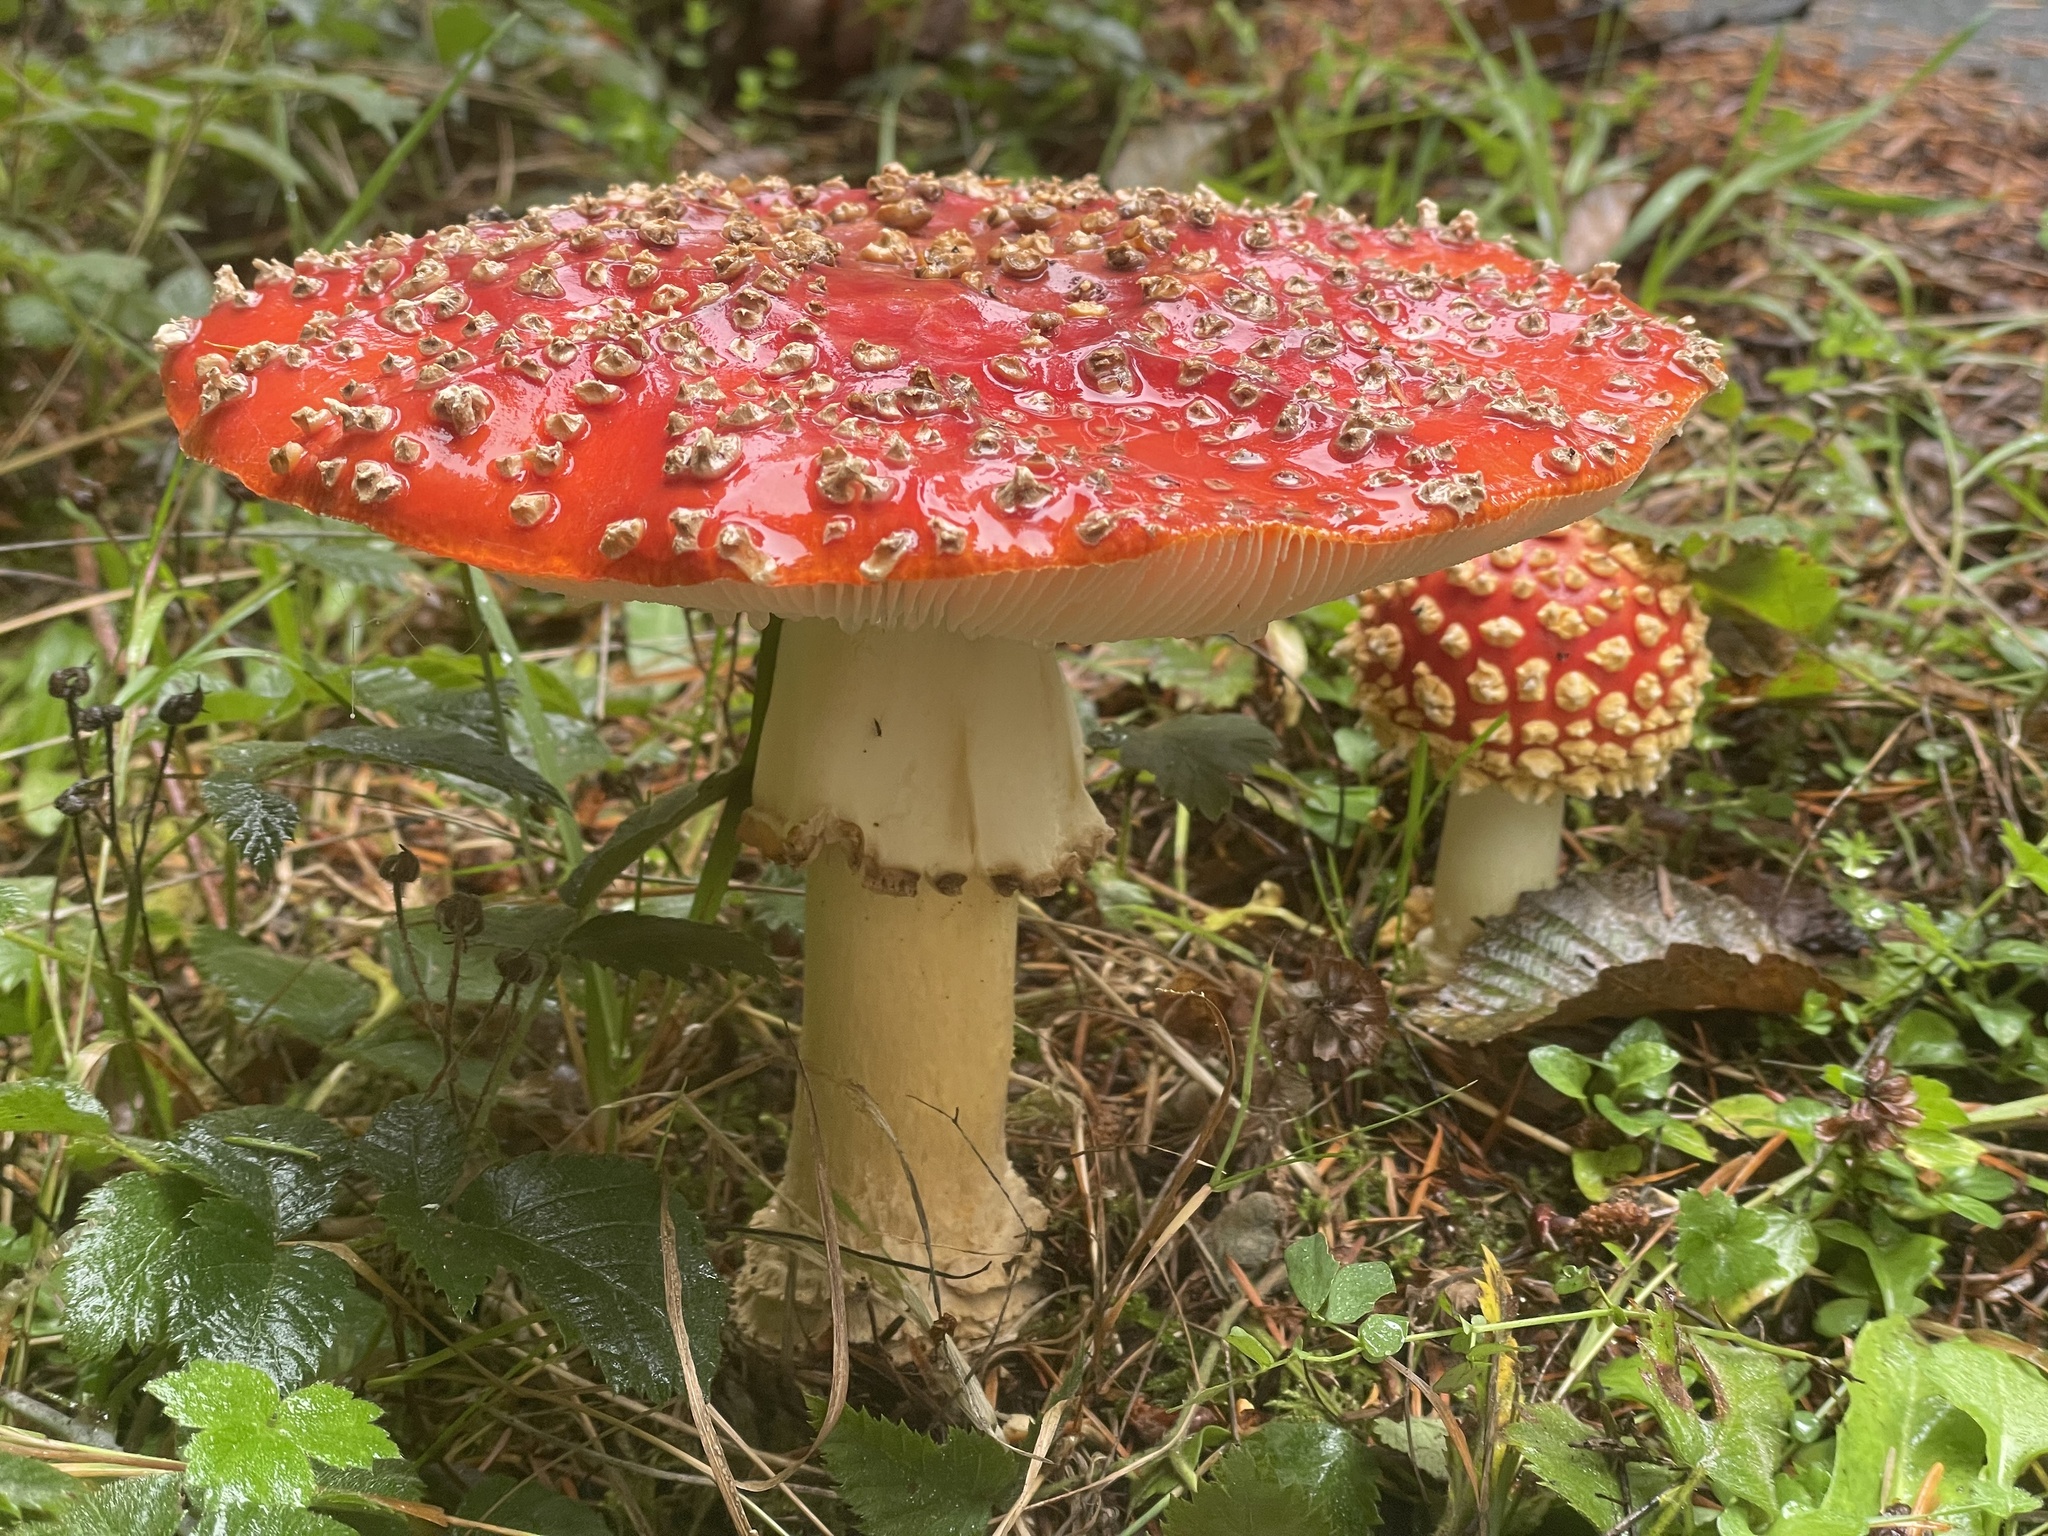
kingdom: Fungi
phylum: Basidiomycota
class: Agaricomycetes
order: Agaricales
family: Amanitaceae
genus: Amanita
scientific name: Amanita muscaria
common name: Fly agaric
